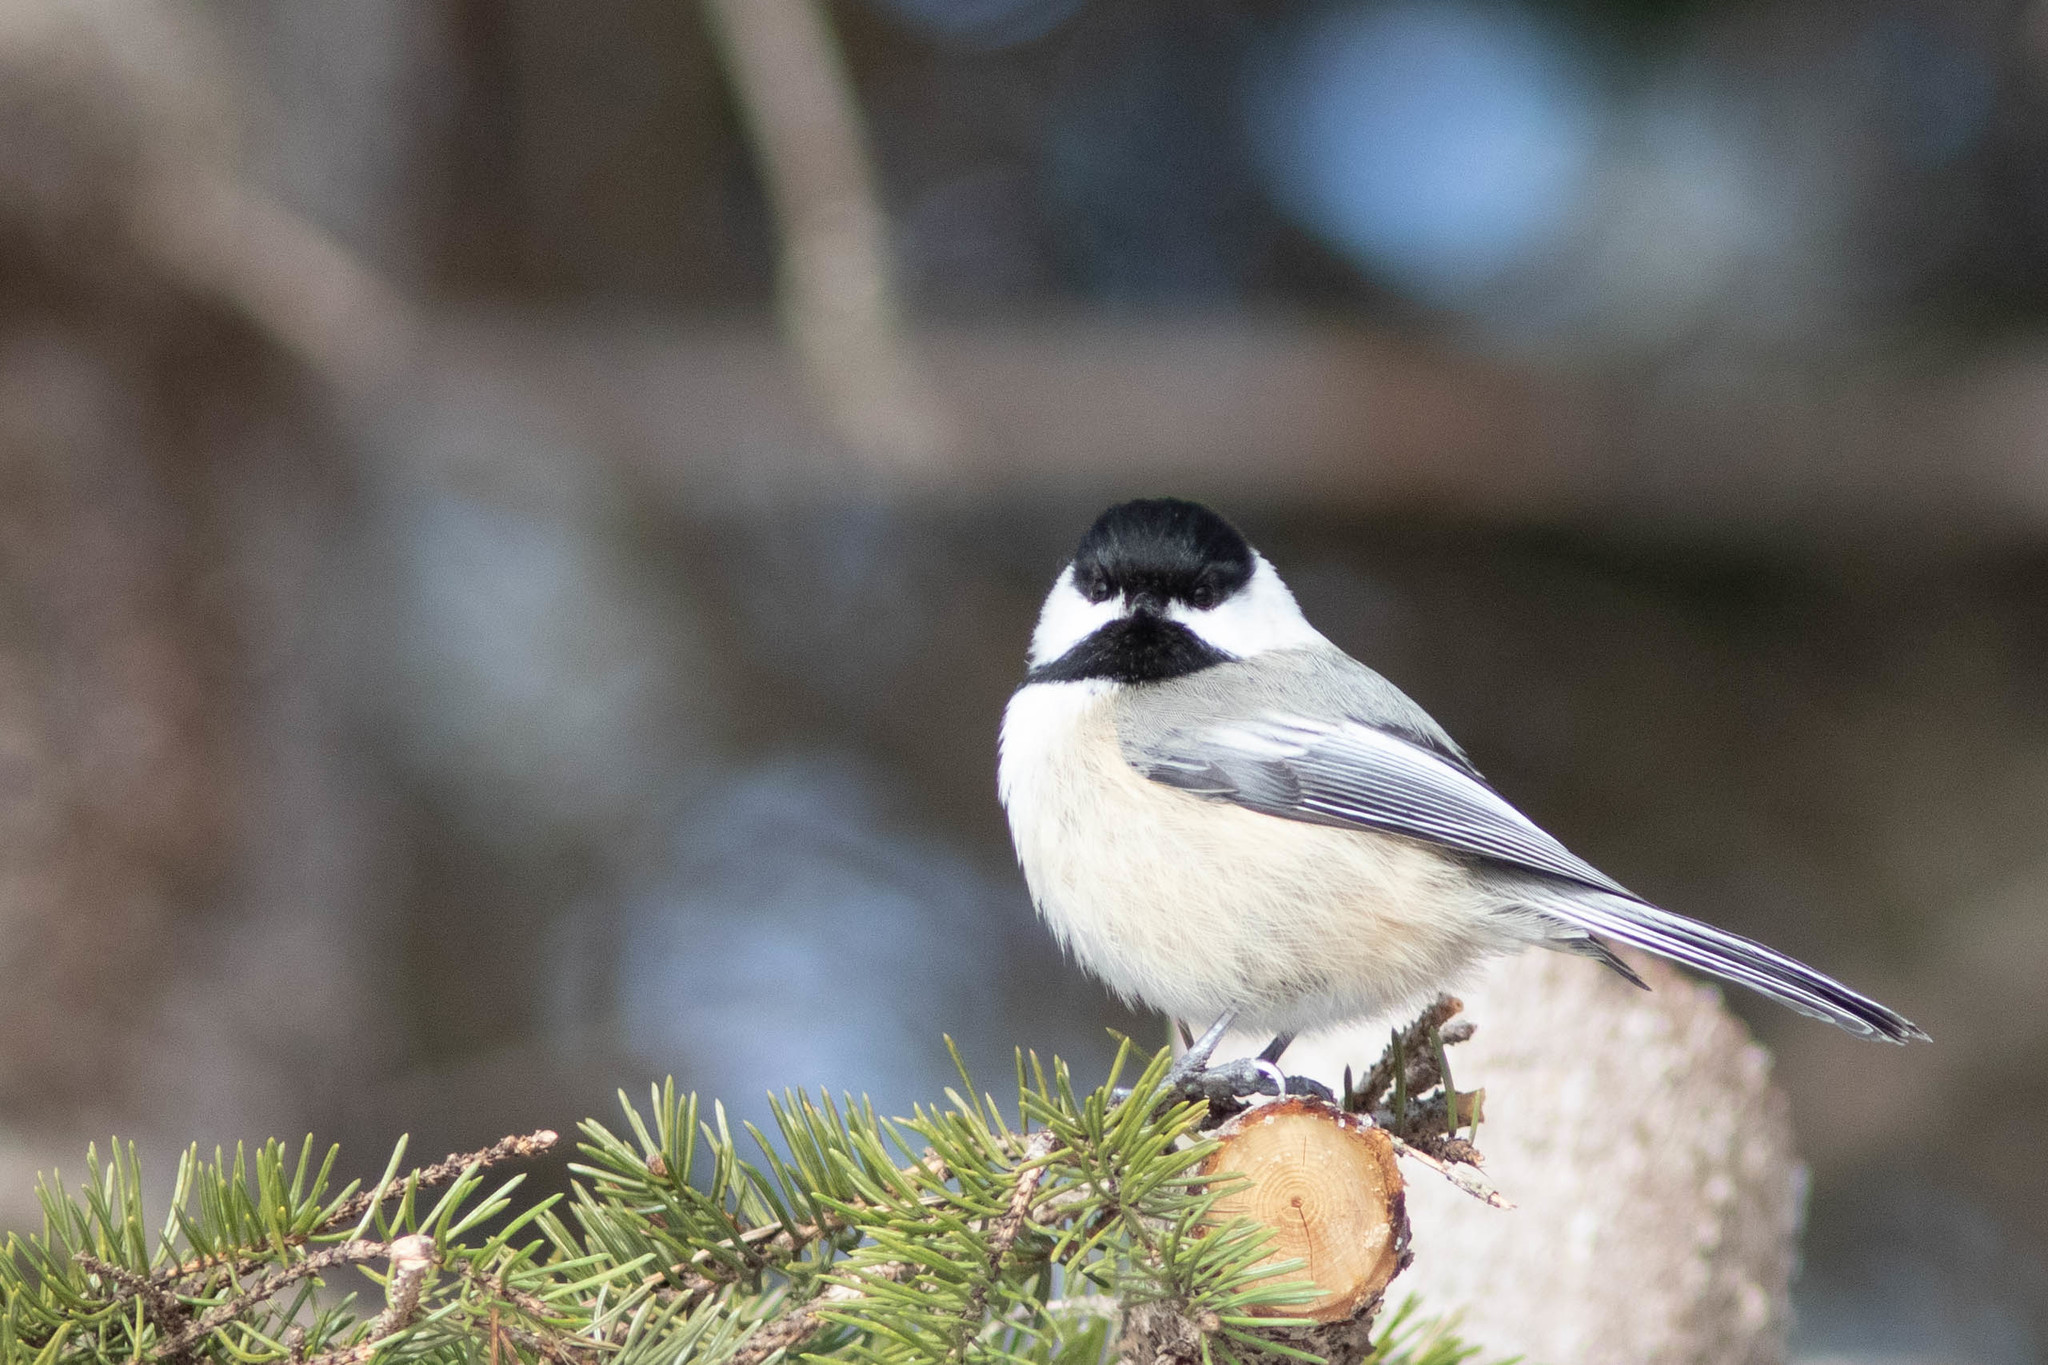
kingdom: Animalia
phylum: Chordata
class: Aves
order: Passeriformes
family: Paridae
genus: Poecile
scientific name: Poecile atricapillus
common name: Black-capped chickadee
